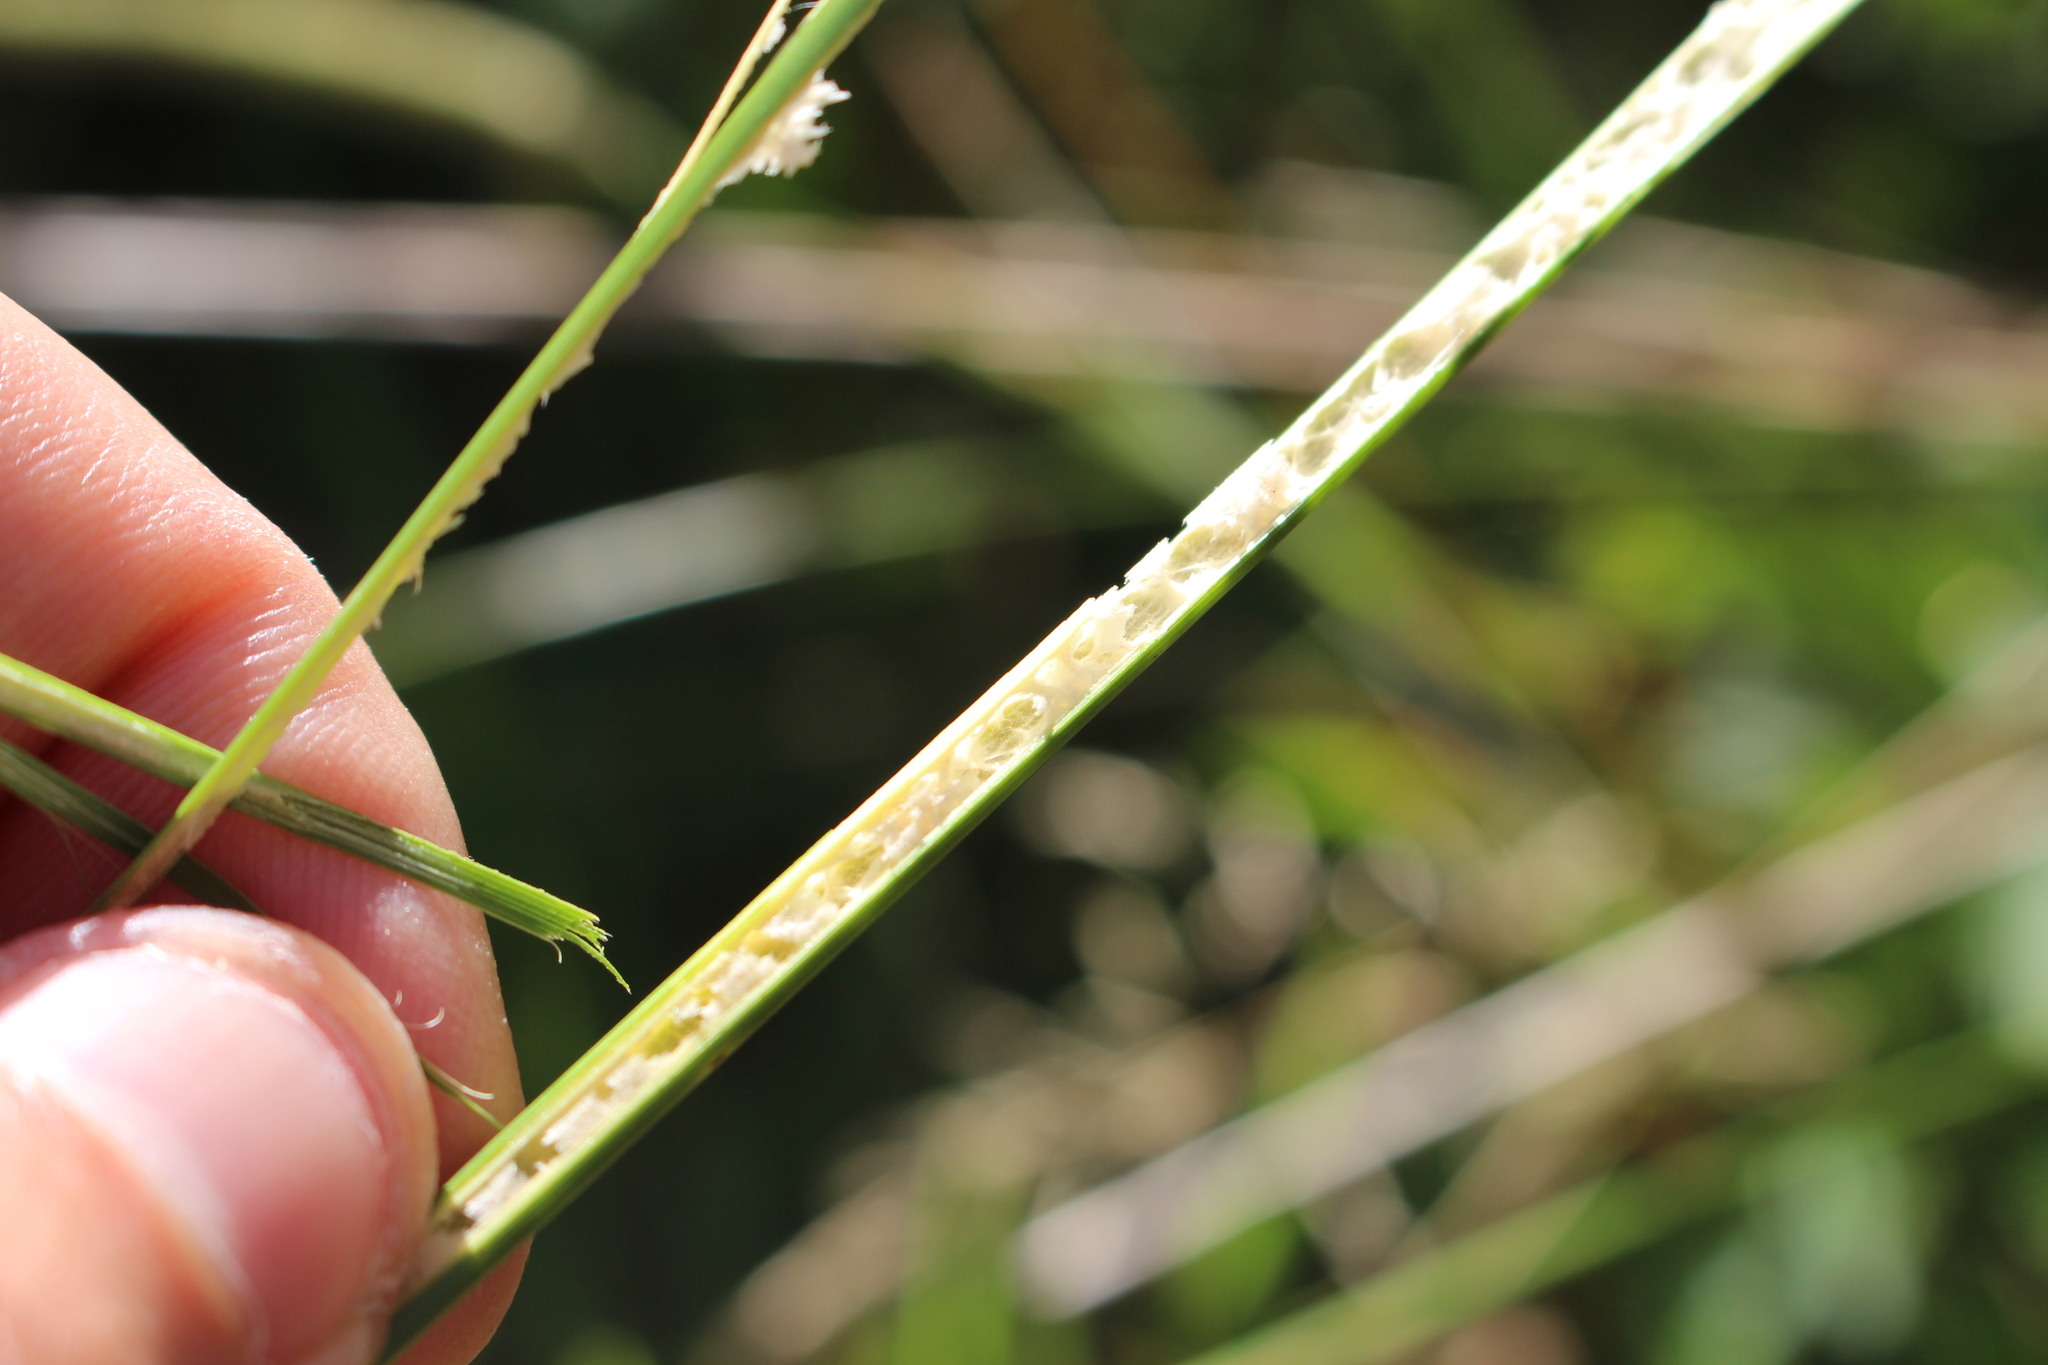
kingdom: Plantae
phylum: Tracheophyta
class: Liliopsida
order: Poales
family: Juncaceae
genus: Juncus
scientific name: Juncus edgariae
